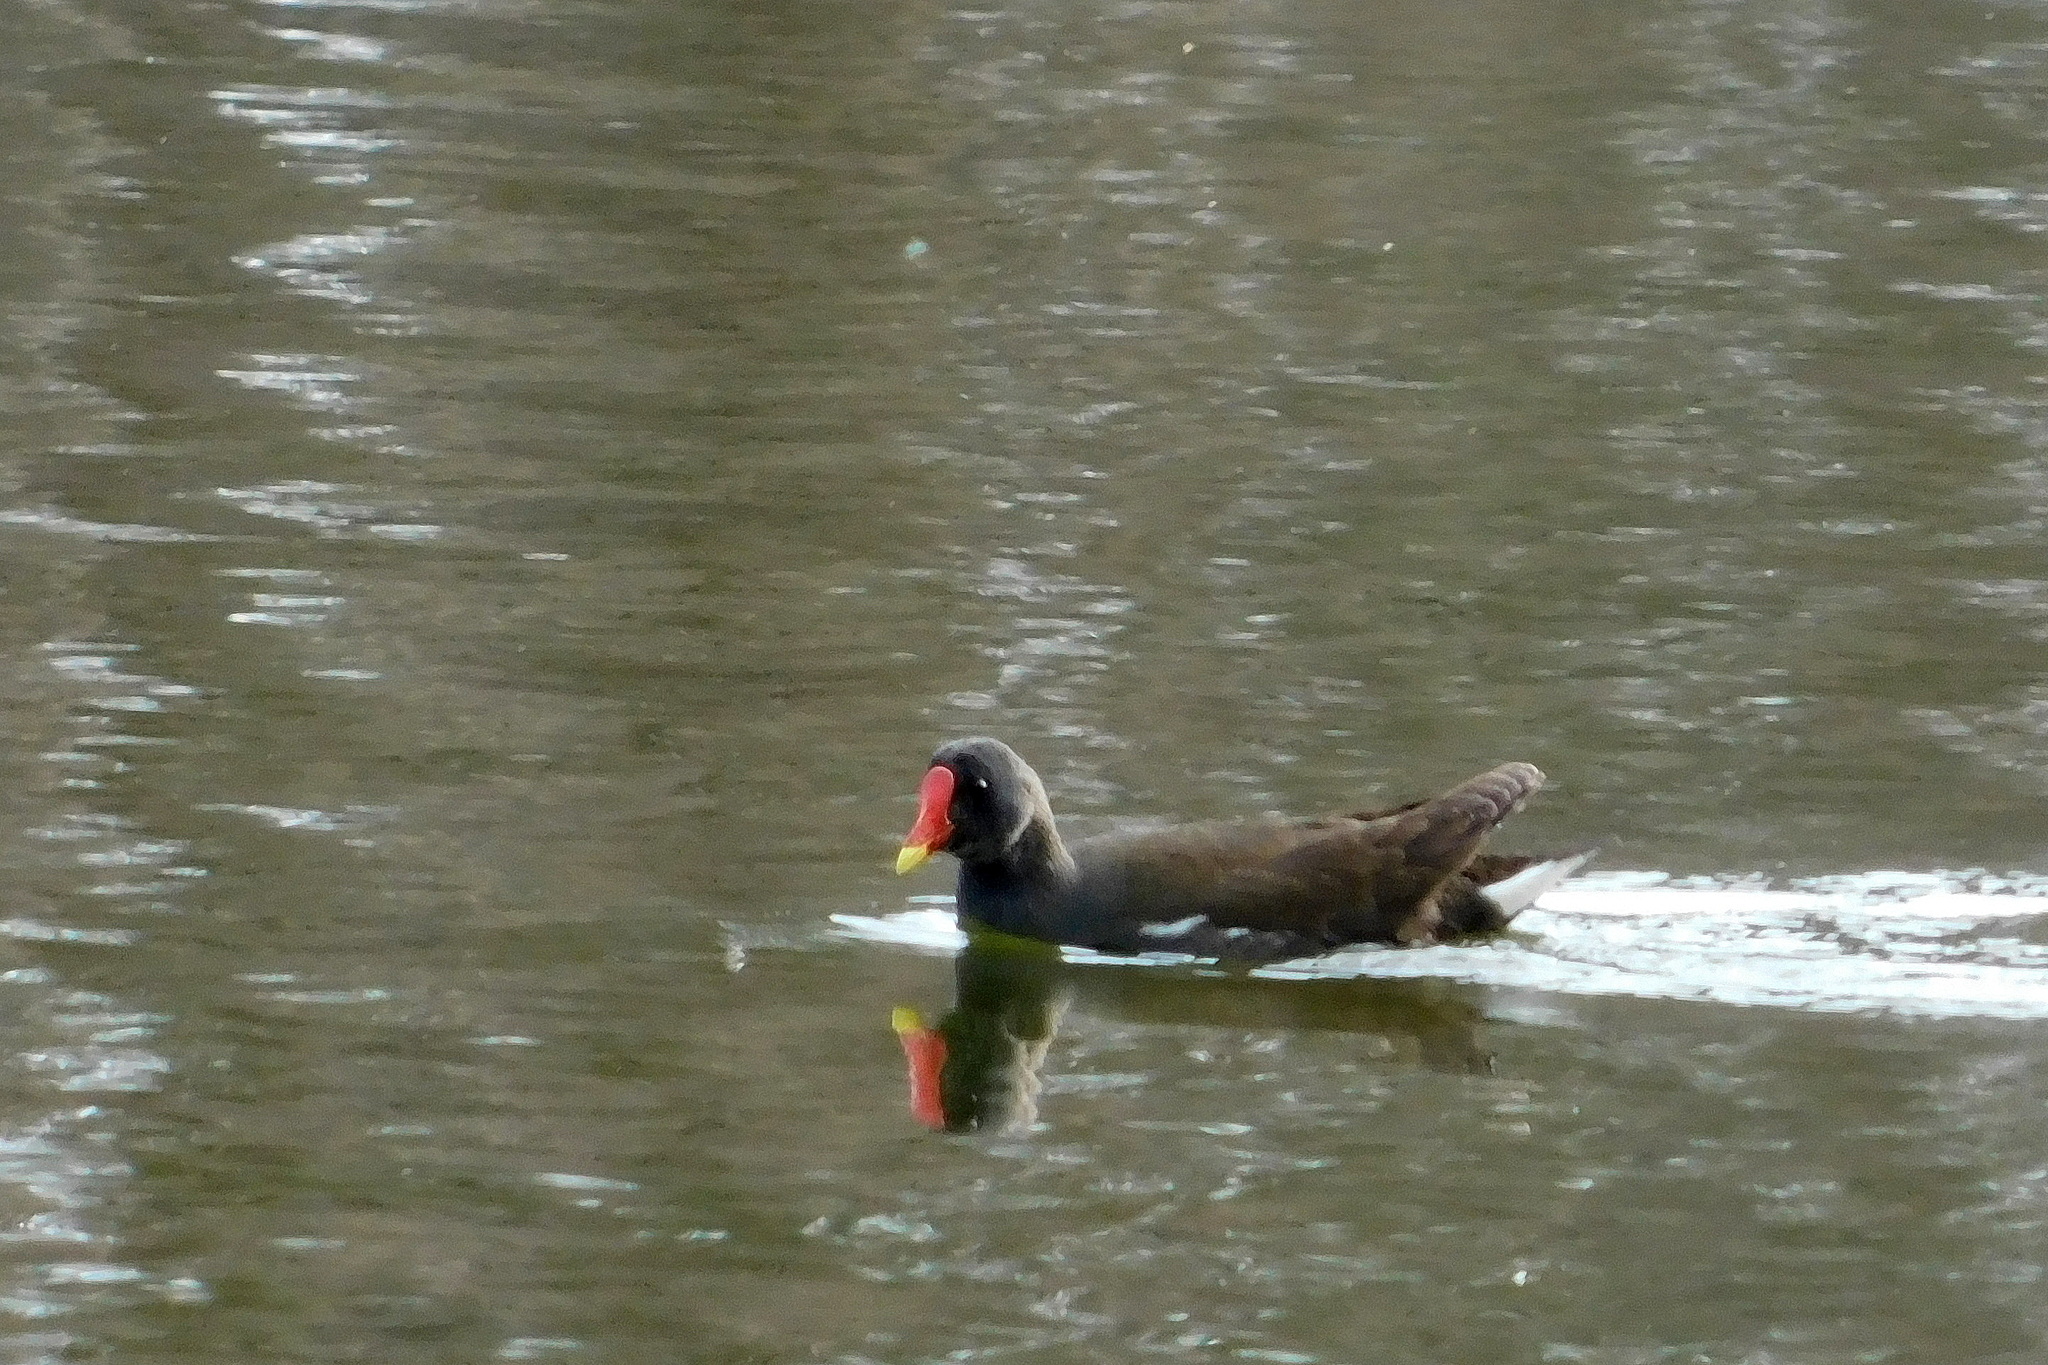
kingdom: Animalia
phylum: Chordata
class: Aves
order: Gruiformes
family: Rallidae
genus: Gallinula
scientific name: Gallinula chloropus
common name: Common moorhen
